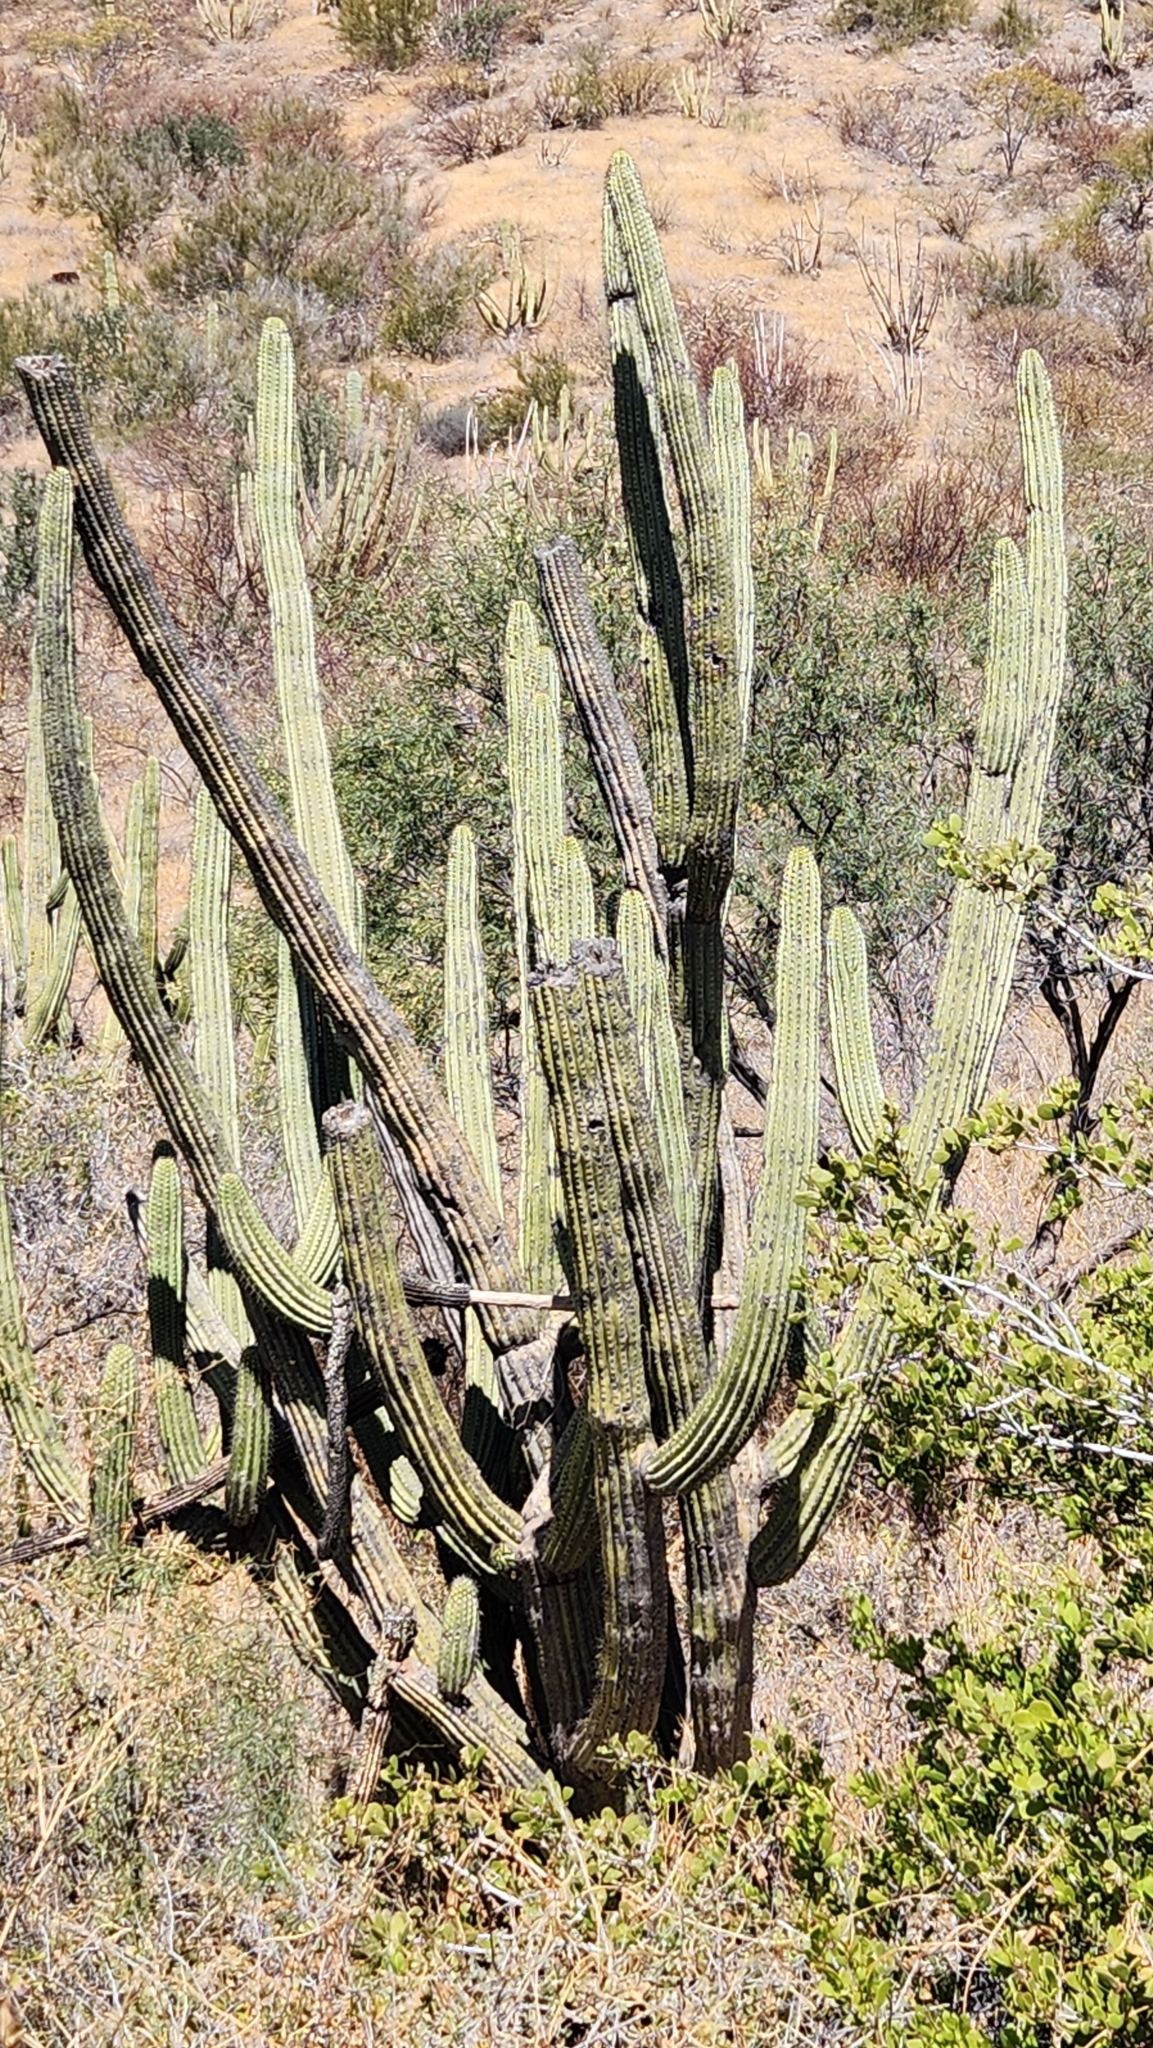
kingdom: Plantae
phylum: Tracheophyta
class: Magnoliopsida
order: Caryophyllales
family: Cactaceae
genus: Stenocereus
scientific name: Stenocereus thurberi
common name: Organ pipe cactus
